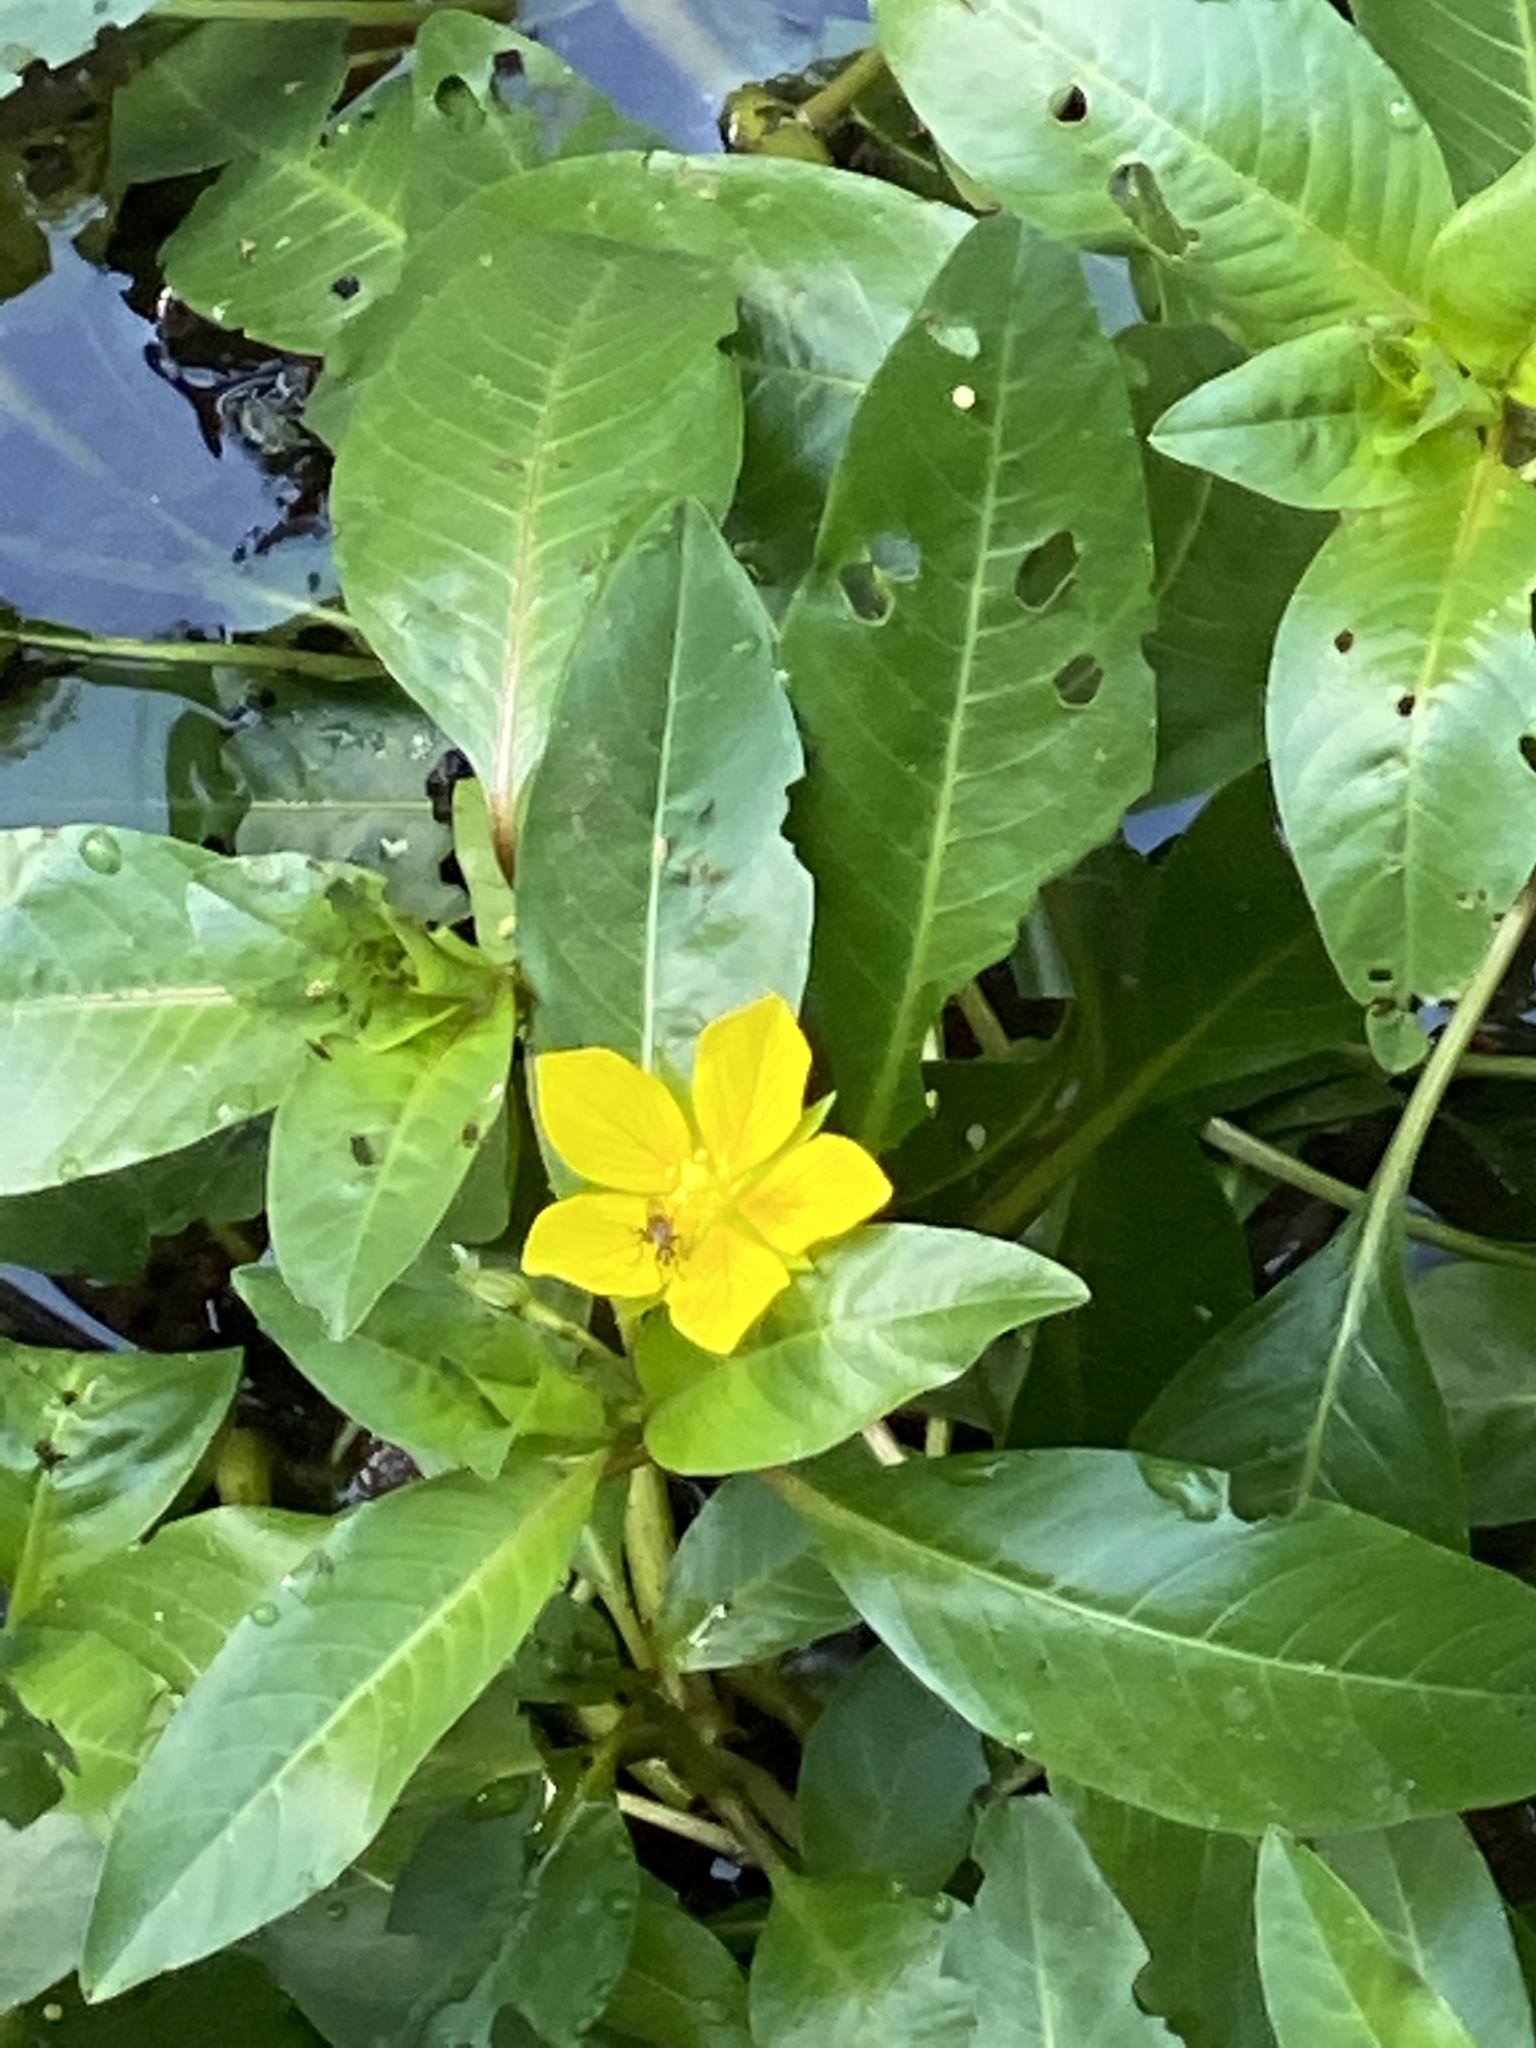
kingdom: Plantae
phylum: Tracheophyta
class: Magnoliopsida
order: Myrtales
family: Onagraceae
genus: Ludwigia
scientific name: Ludwigia peploides
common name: Floating primrose-willow
